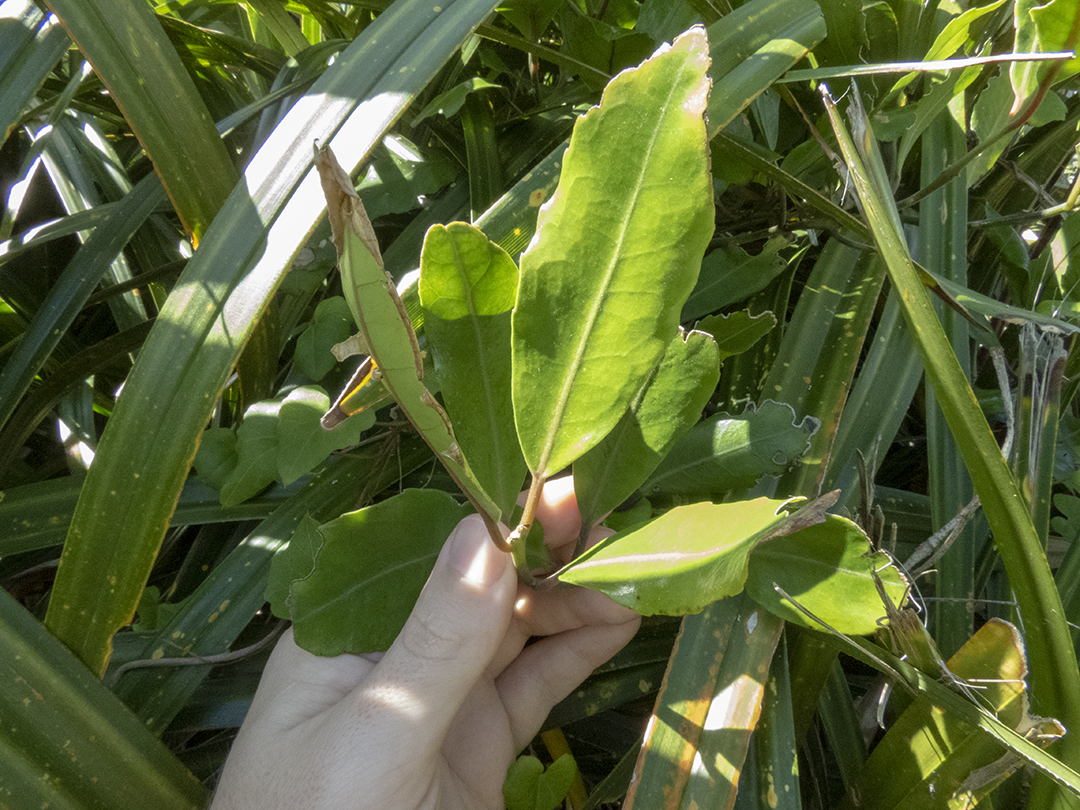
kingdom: Plantae
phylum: Tracheophyta
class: Magnoliopsida
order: Laurales
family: Monimiaceae
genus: Hedycarya
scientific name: Hedycarya arborea
